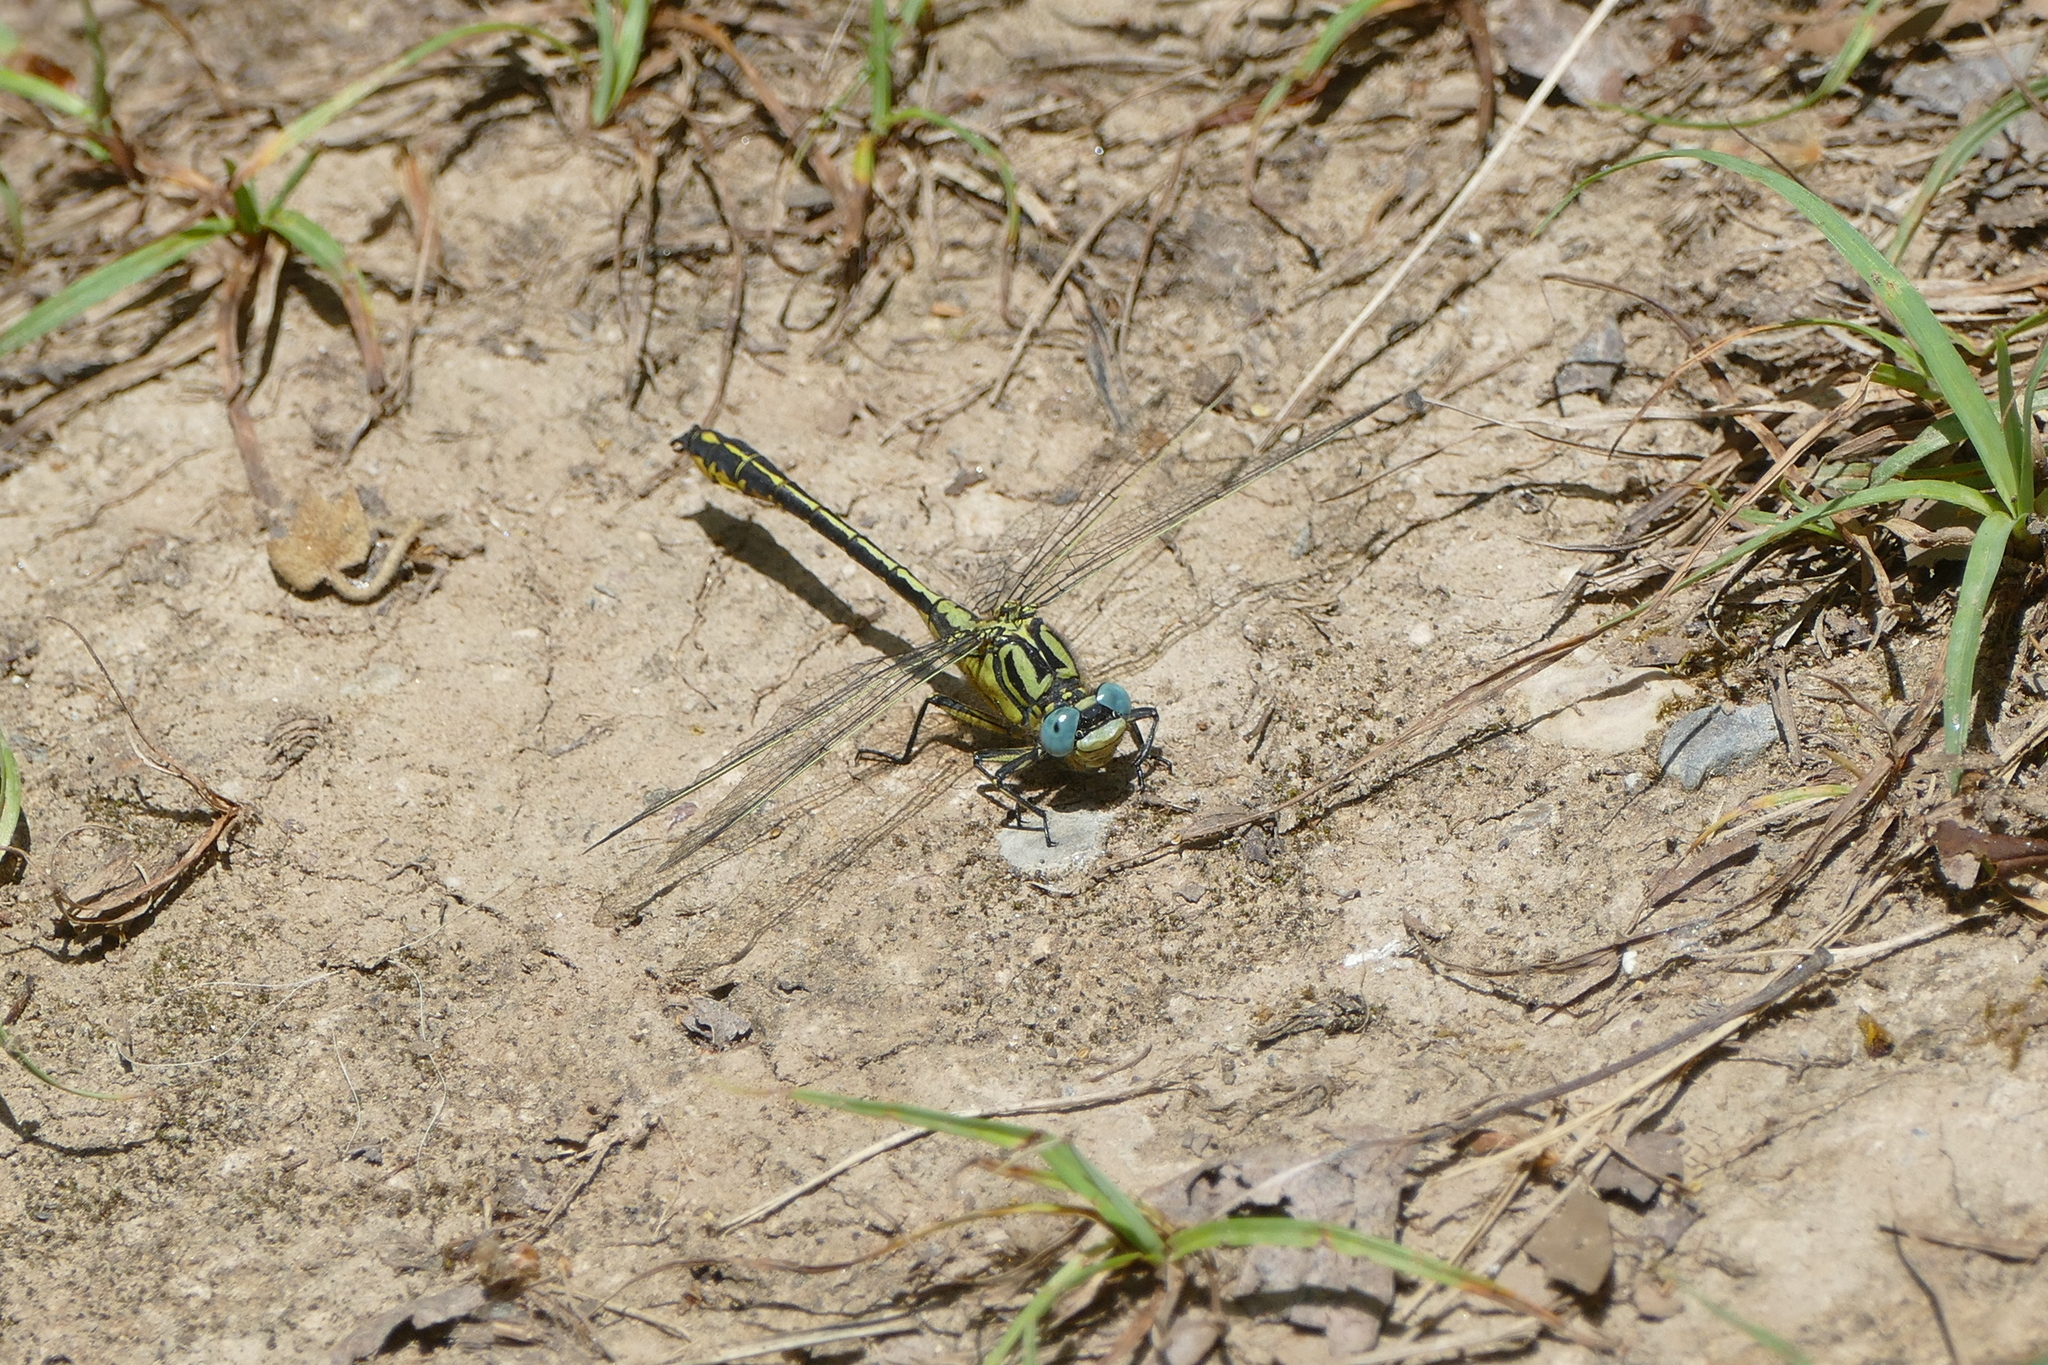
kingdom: Animalia
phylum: Arthropoda
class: Insecta
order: Odonata
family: Gomphidae
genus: Gomphus
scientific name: Gomphus simillimus
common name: Yellow clubtail
